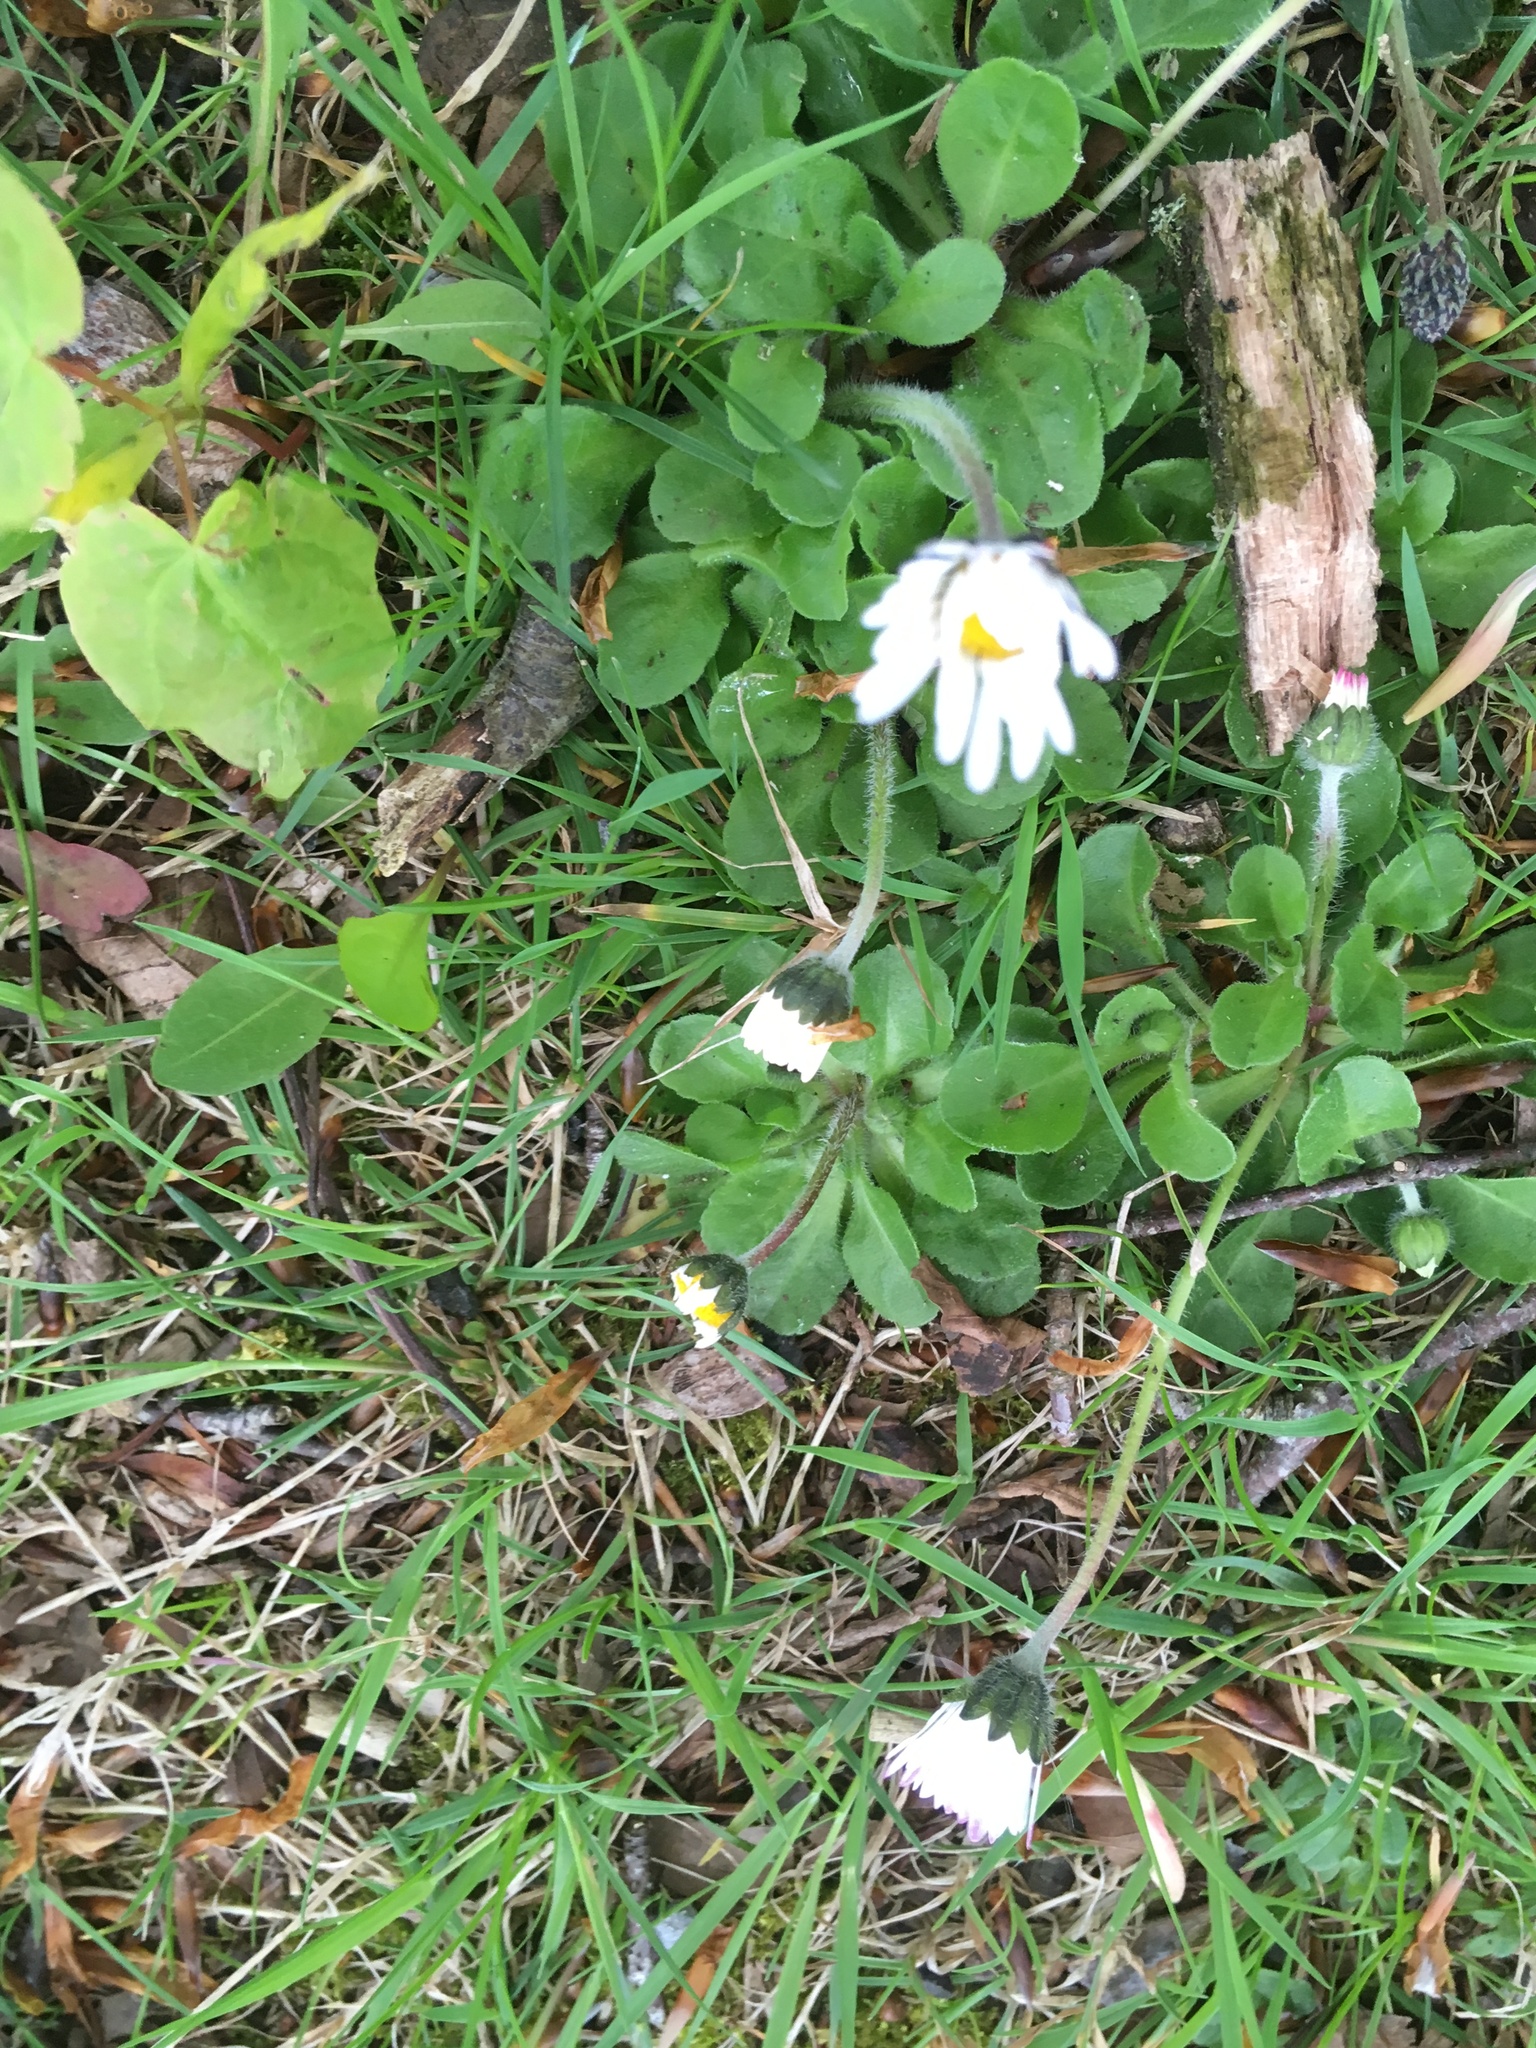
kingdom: Plantae
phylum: Tracheophyta
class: Magnoliopsida
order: Asterales
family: Asteraceae
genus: Bellis
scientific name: Bellis perennis
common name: Lawndaisy
